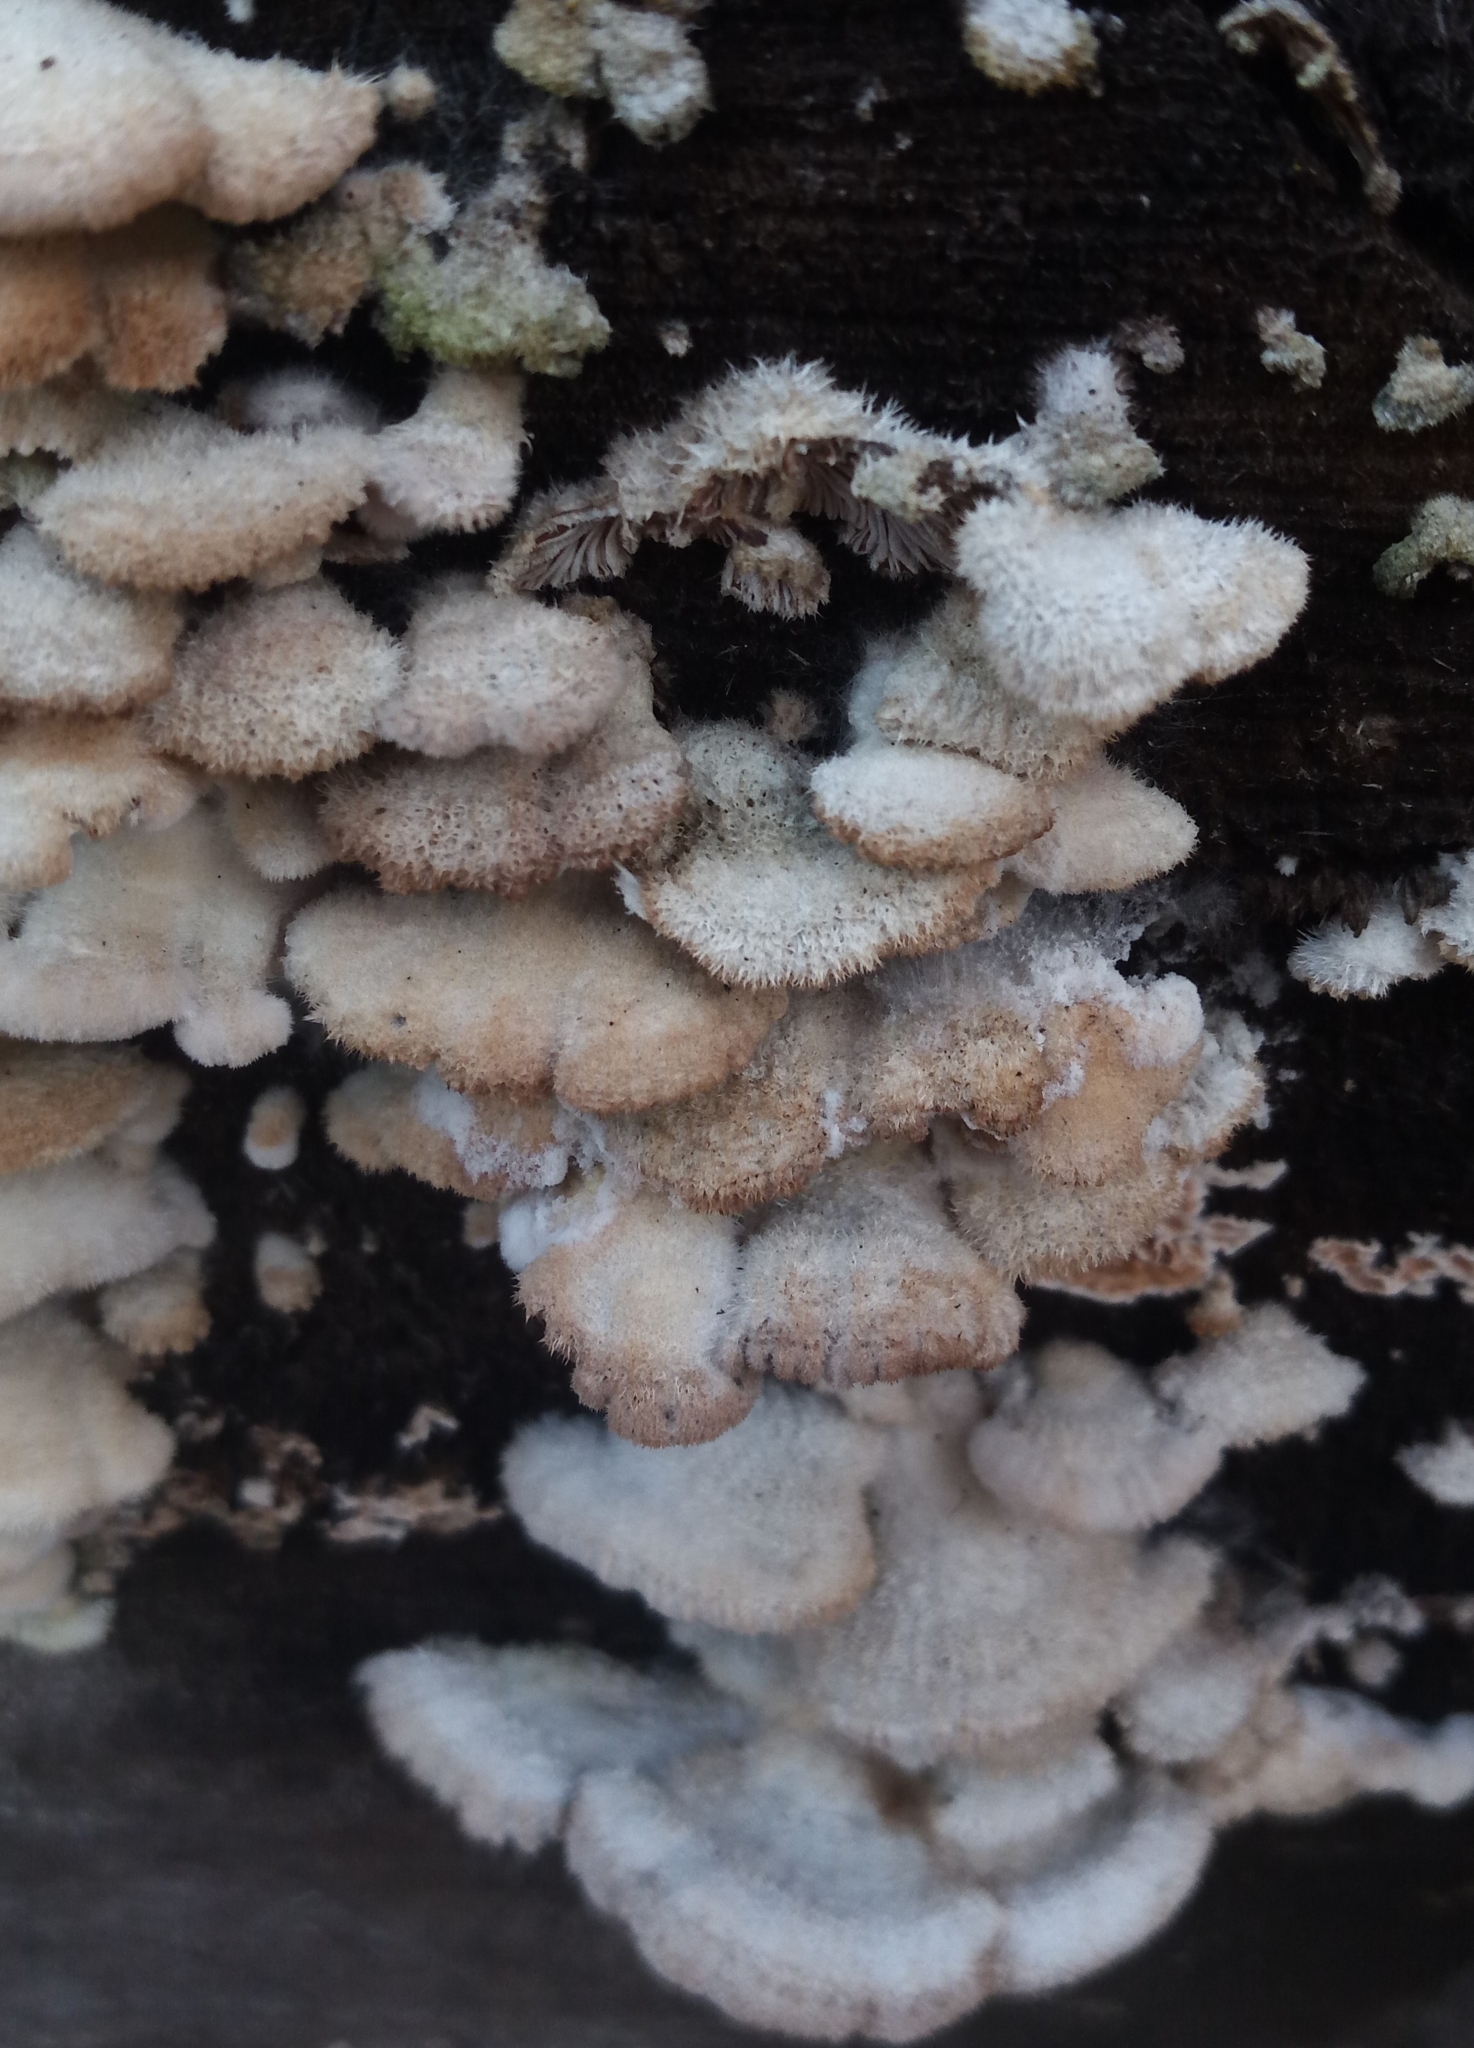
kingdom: Fungi
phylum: Basidiomycota
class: Agaricomycetes
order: Agaricales
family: Schizophyllaceae
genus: Schizophyllum
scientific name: Schizophyllum commune
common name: Common porecrust
